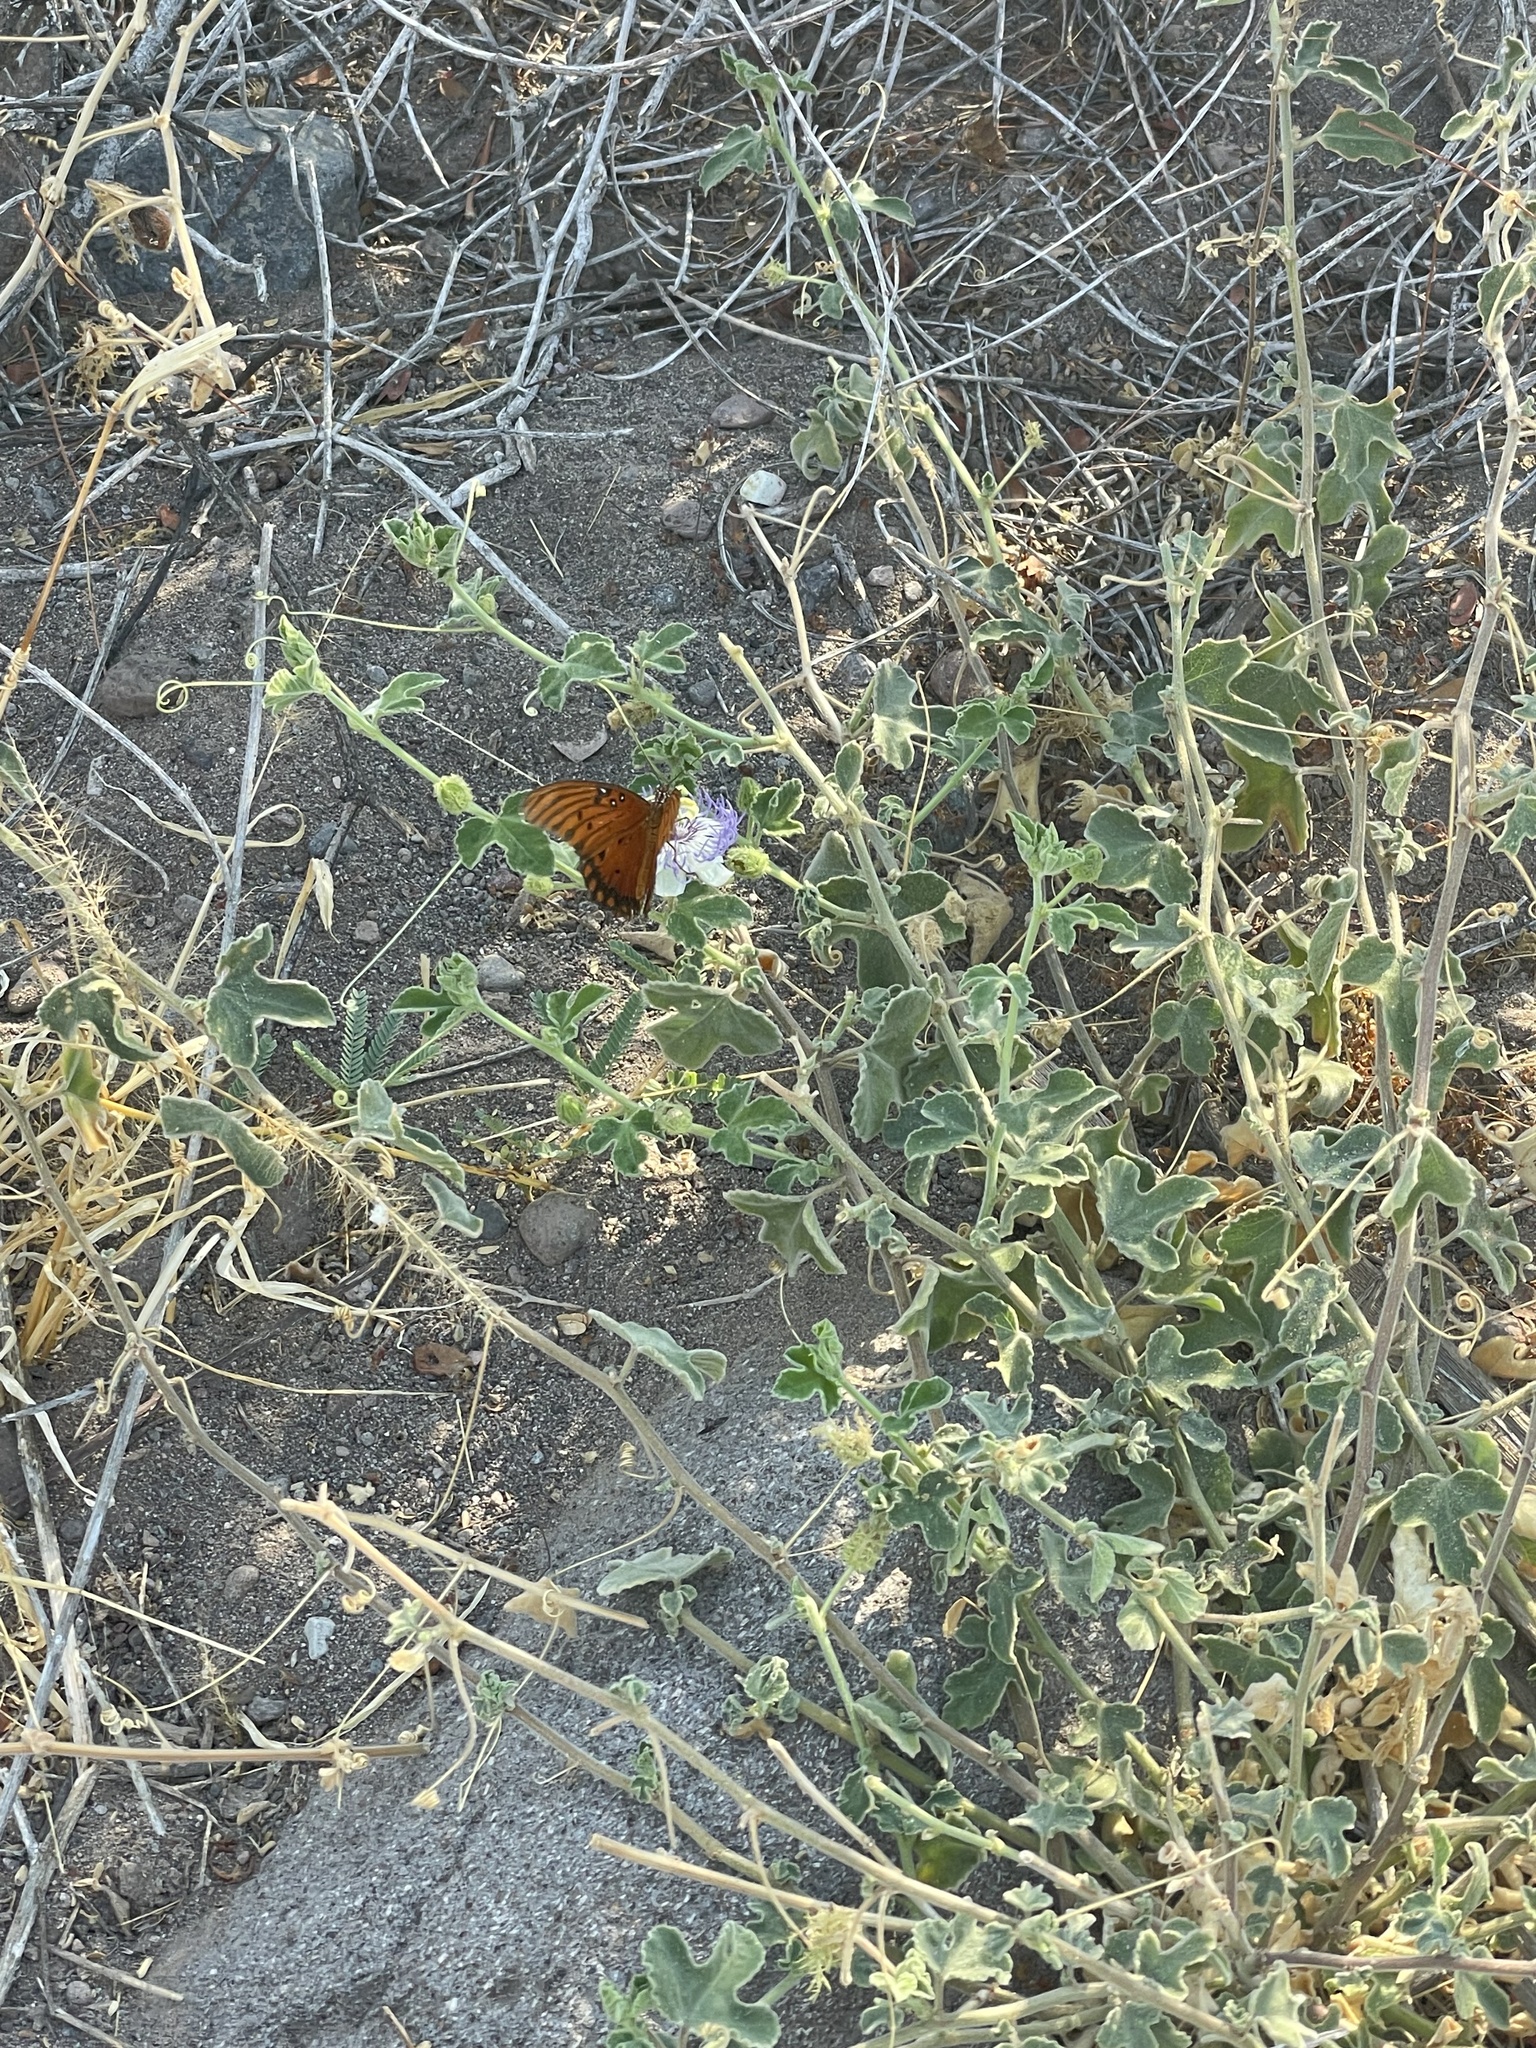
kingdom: Animalia
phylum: Arthropoda
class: Insecta
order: Lepidoptera
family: Nymphalidae
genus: Dione
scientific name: Dione vanillae
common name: Gulf fritillary
